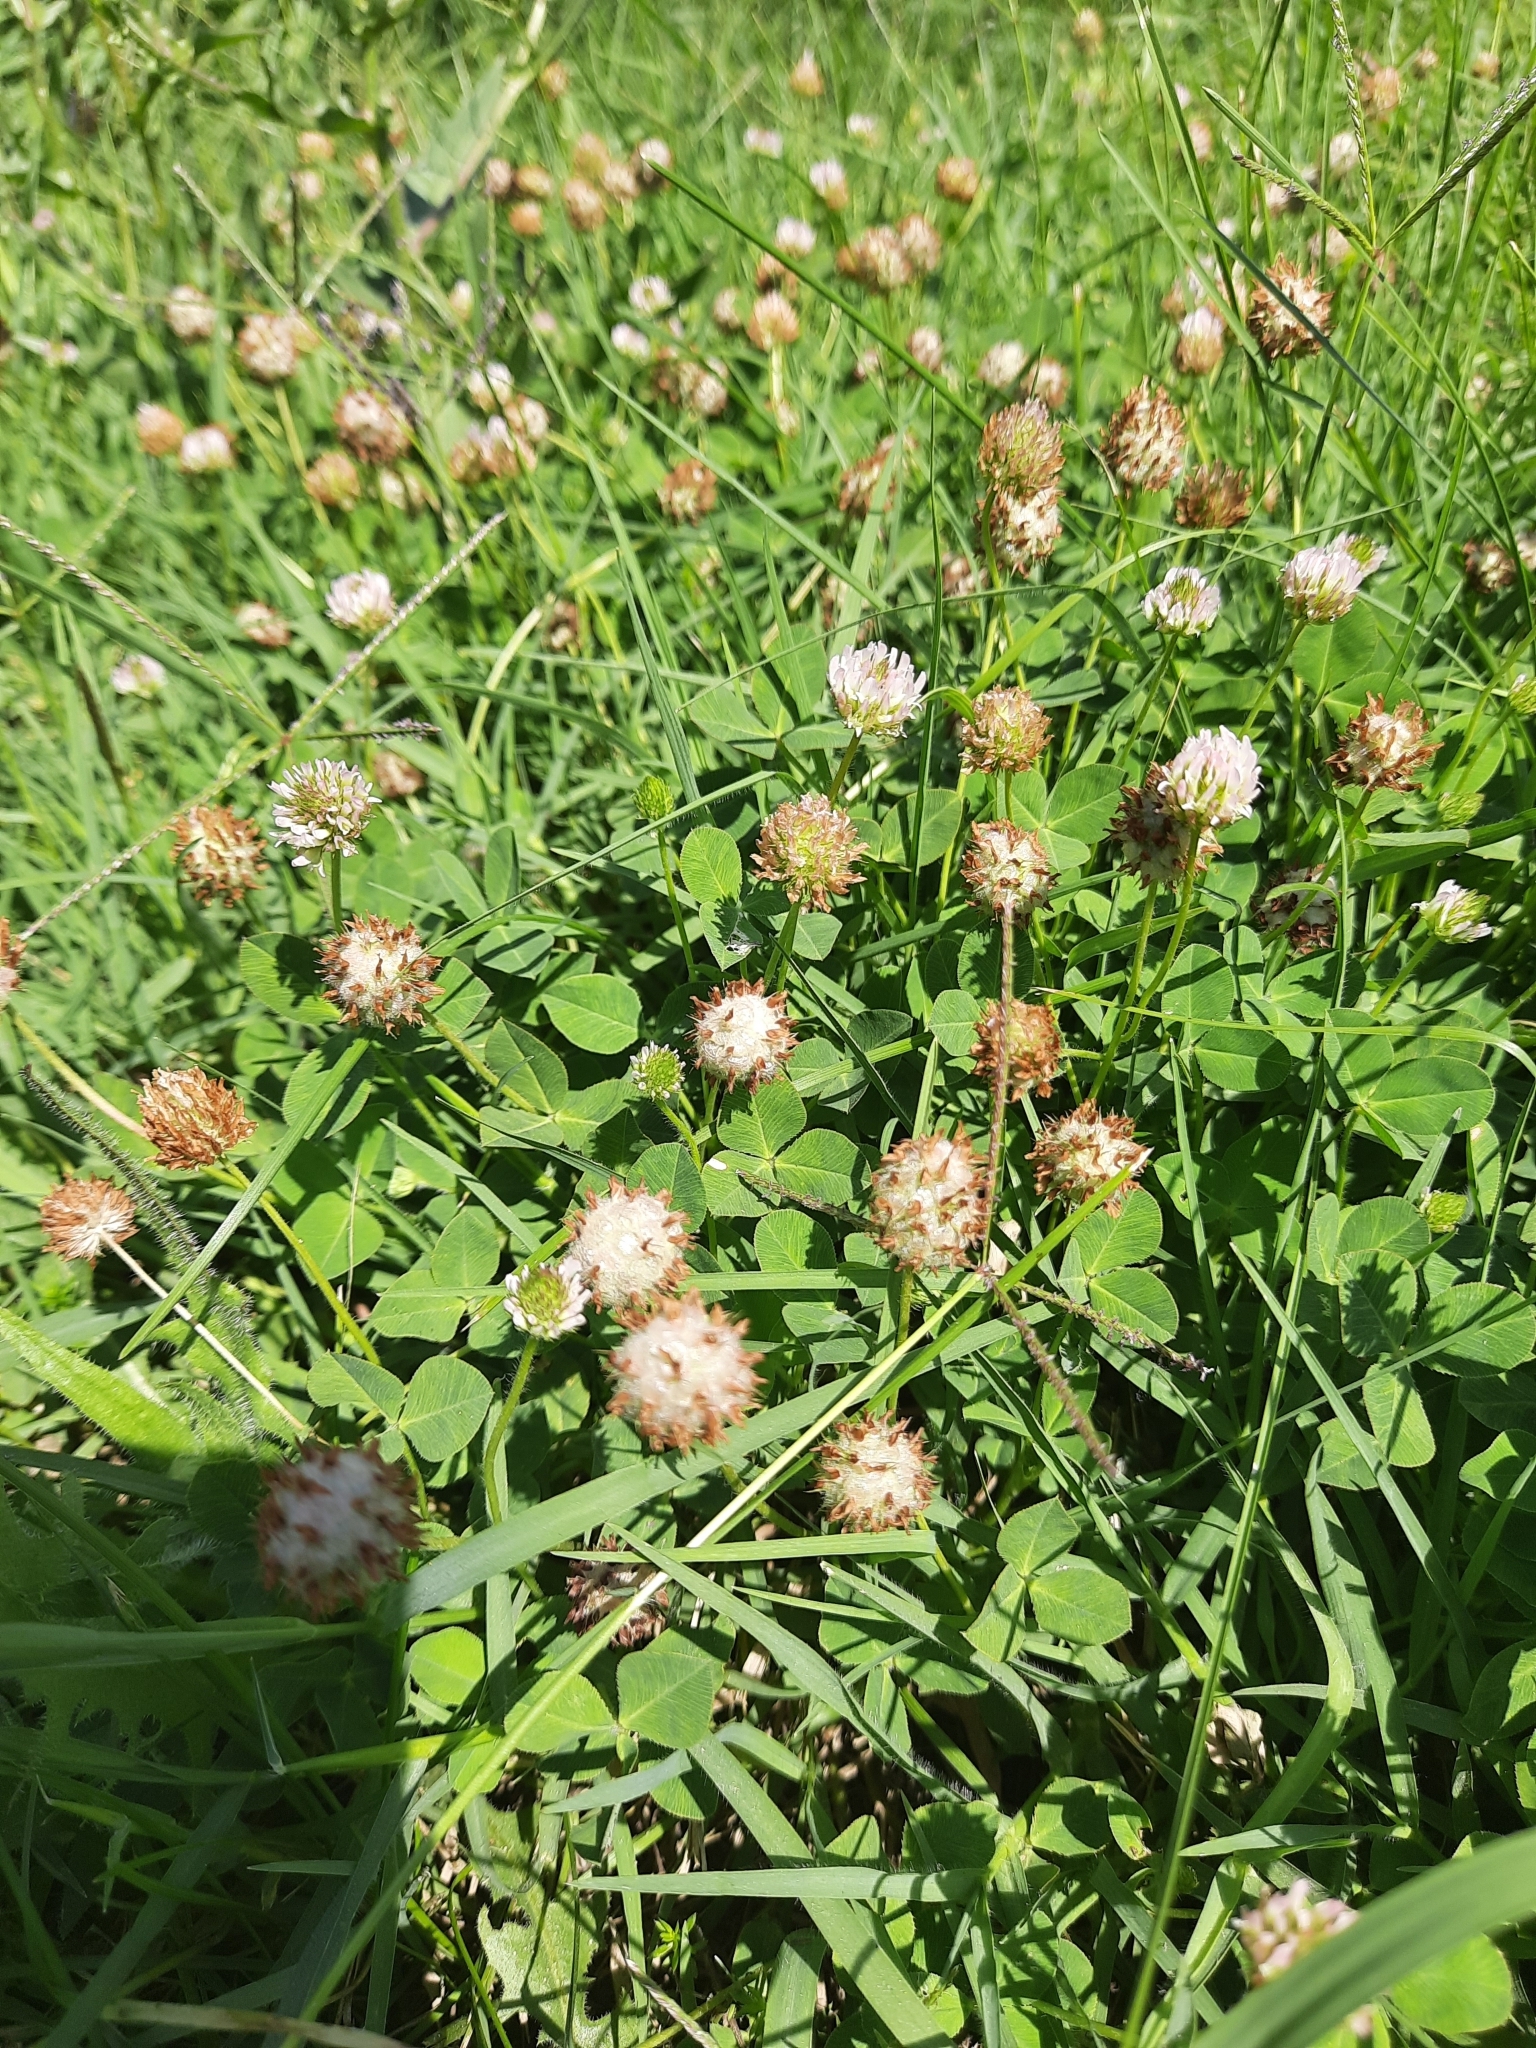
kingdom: Plantae
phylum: Tracheophyta
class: Magnoliopsida
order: Fabales
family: Fabaceae
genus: Trifolium
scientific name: Trifolium fragiferum
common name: Strawberry clover
